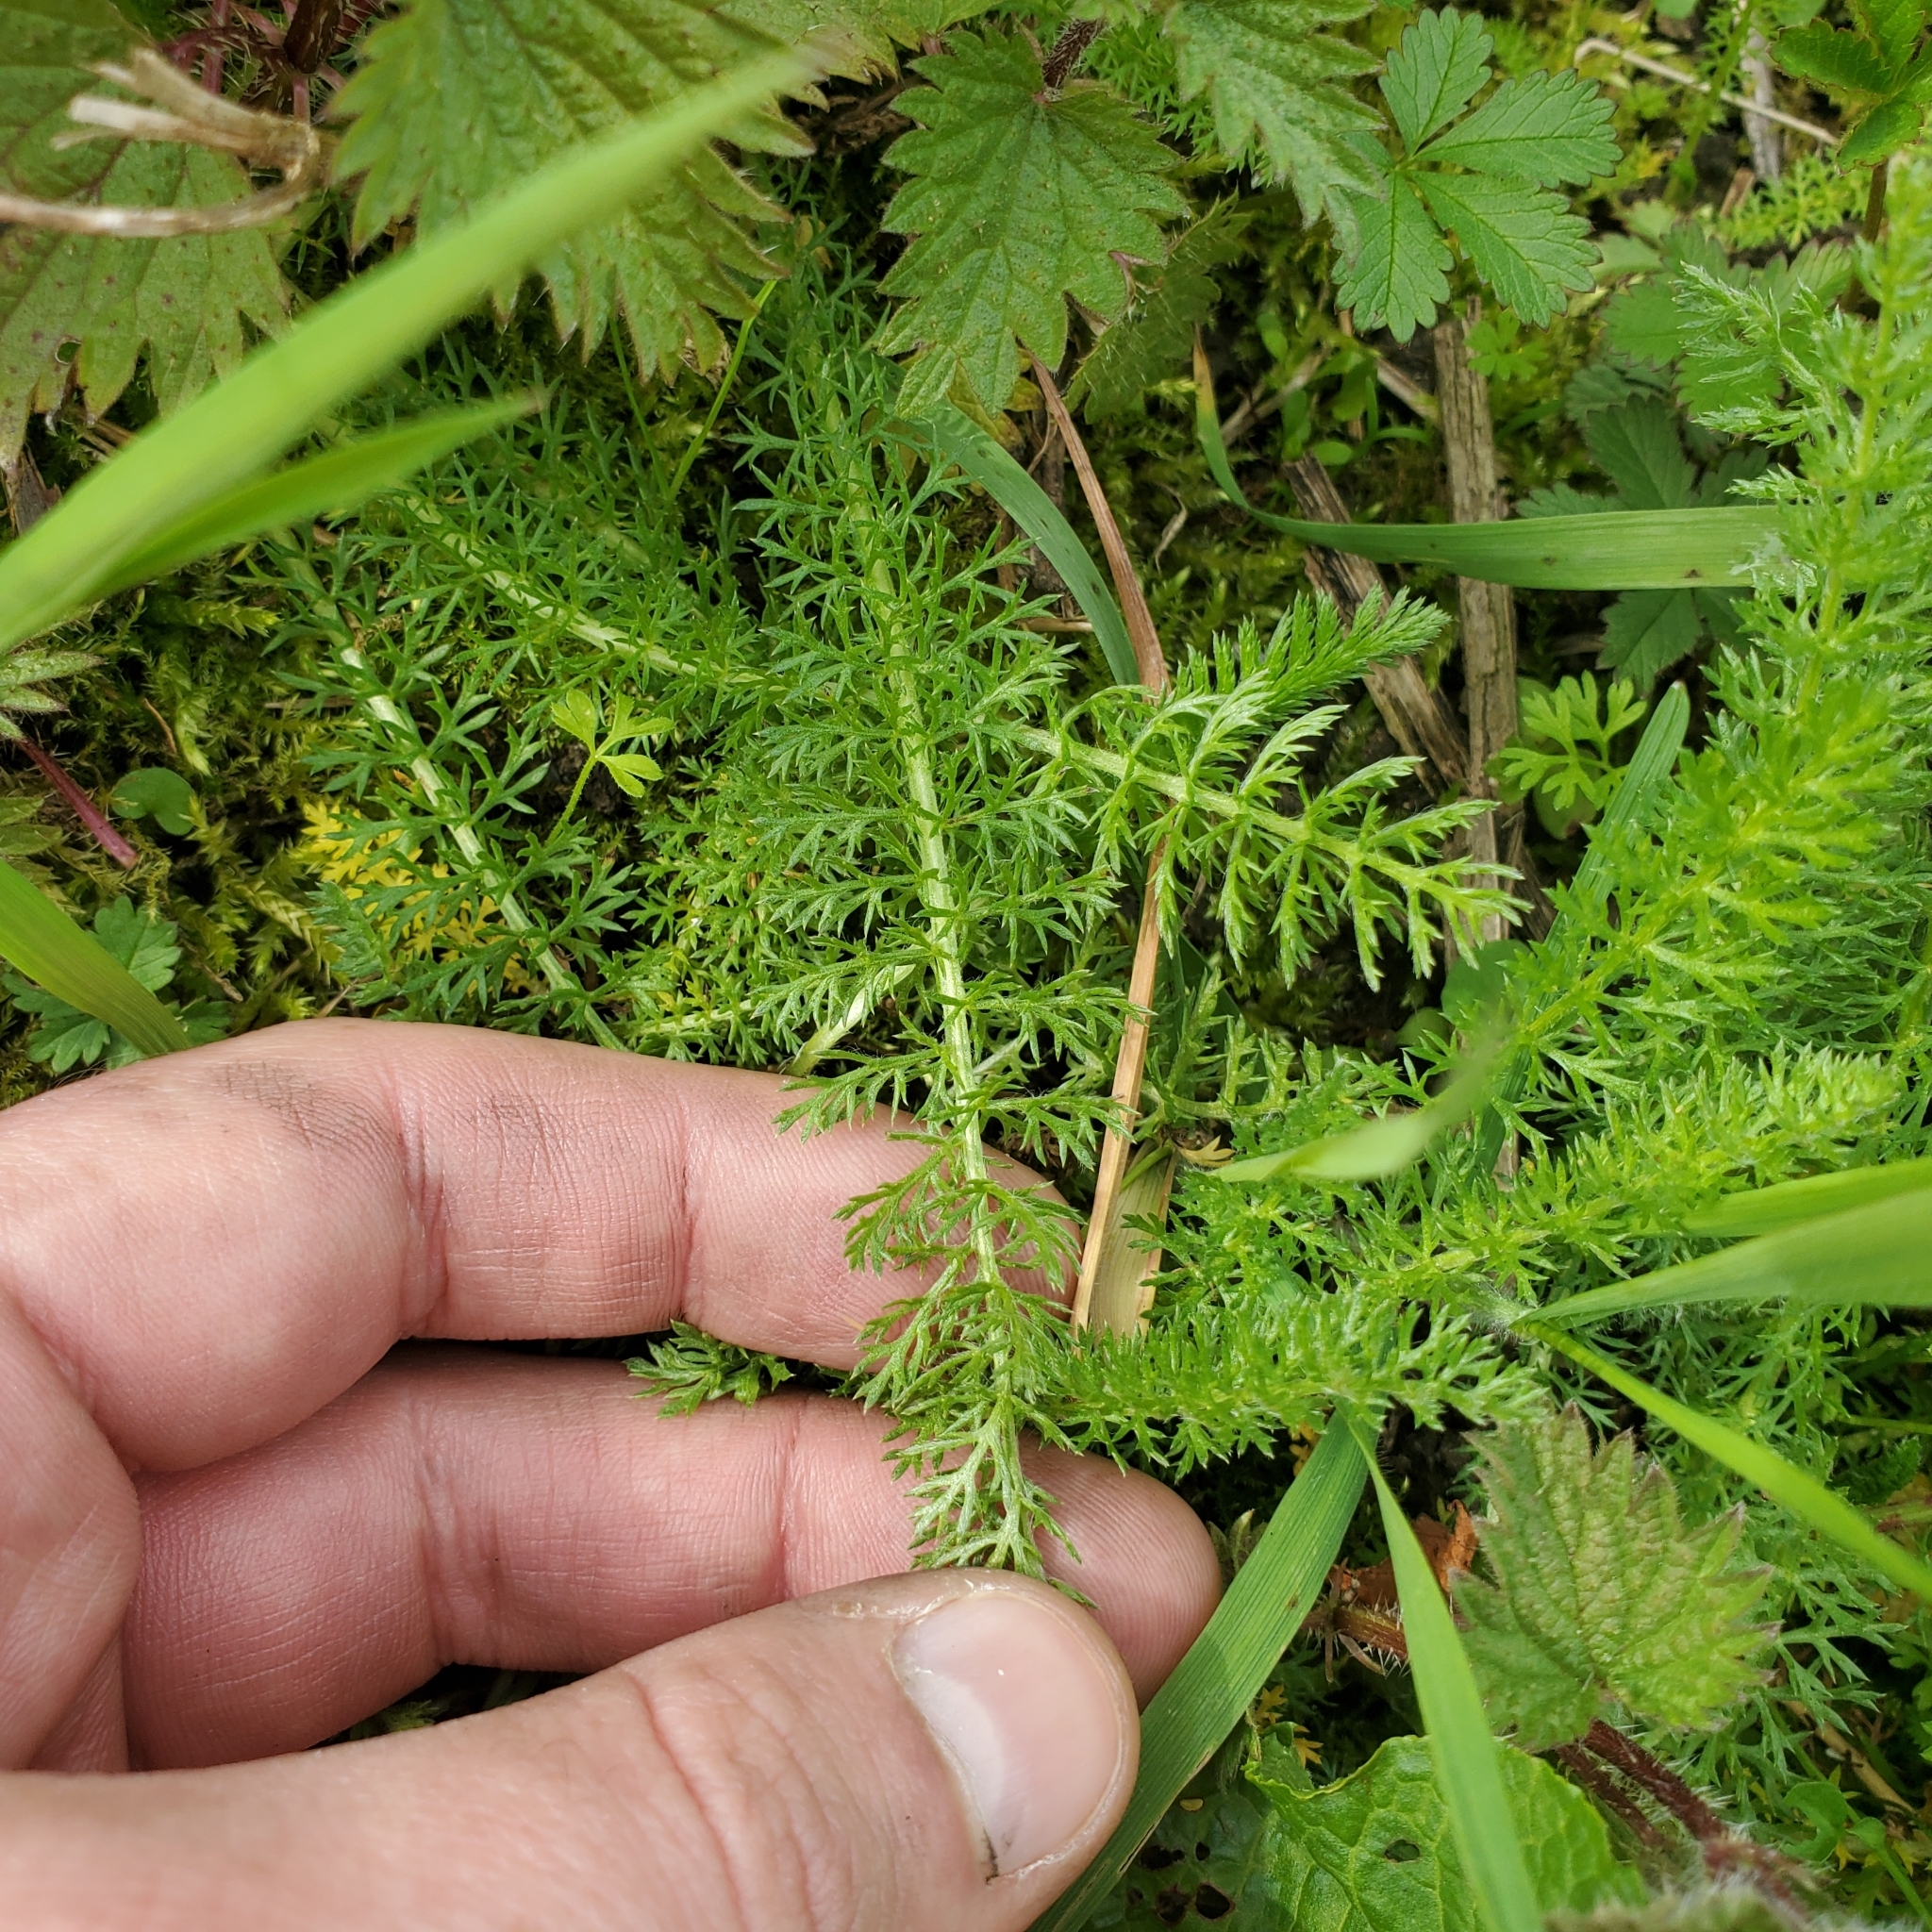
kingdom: Plantae
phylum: Tracheophyta
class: Magnoliopsida
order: Asterales
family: Asteraceae
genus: Achillea
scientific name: Achillea millefolium
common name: Yarrow
